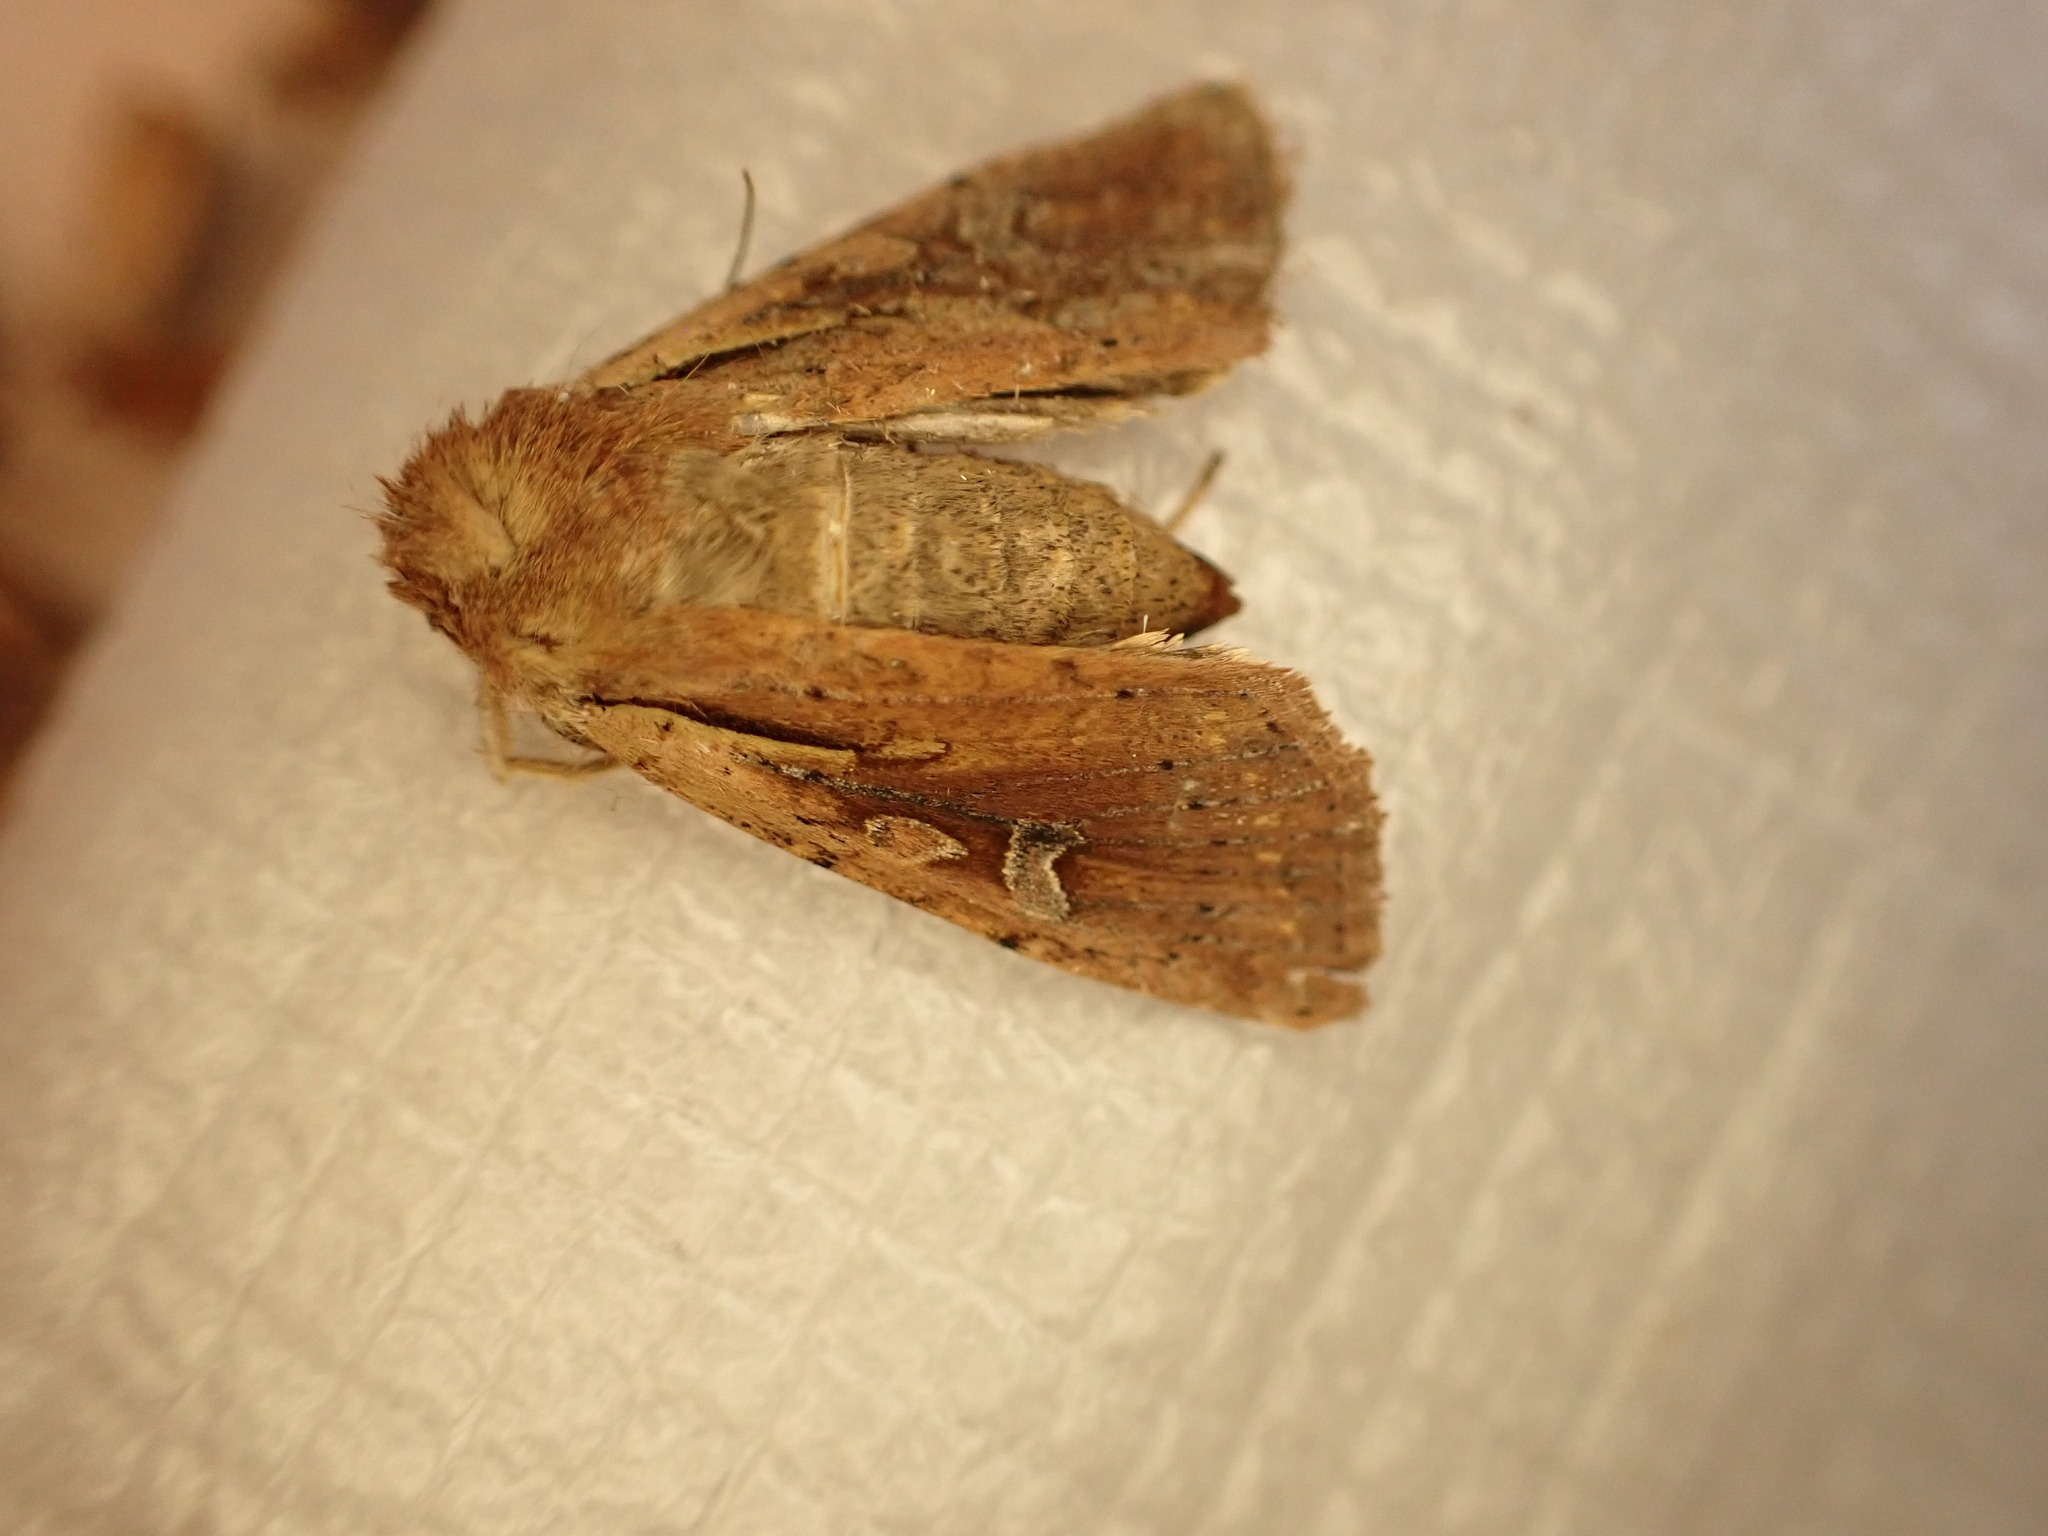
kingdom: Animalia
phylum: Arthropoda
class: Insecta
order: Lepidoptera
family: Noctuidae
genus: Ichneutica
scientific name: Ichneutica atristriga
